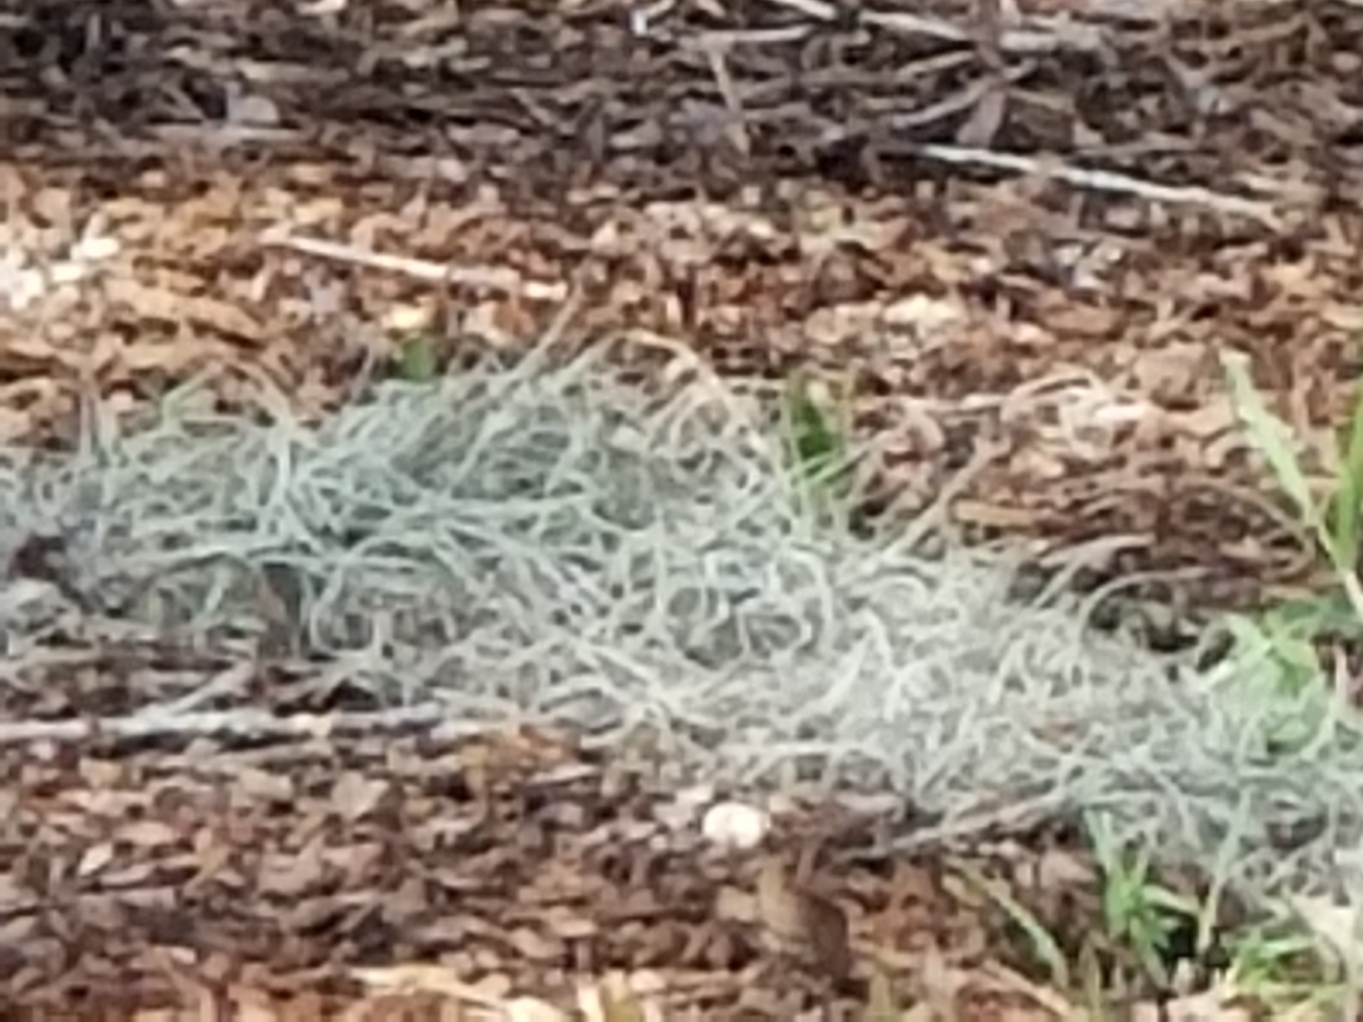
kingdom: Plantae
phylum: Tracheophyta
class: Liliopsida
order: Poales
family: Bromeliaceae
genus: Tillandsia
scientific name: Tillandsia usneoides
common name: Spanish moss
